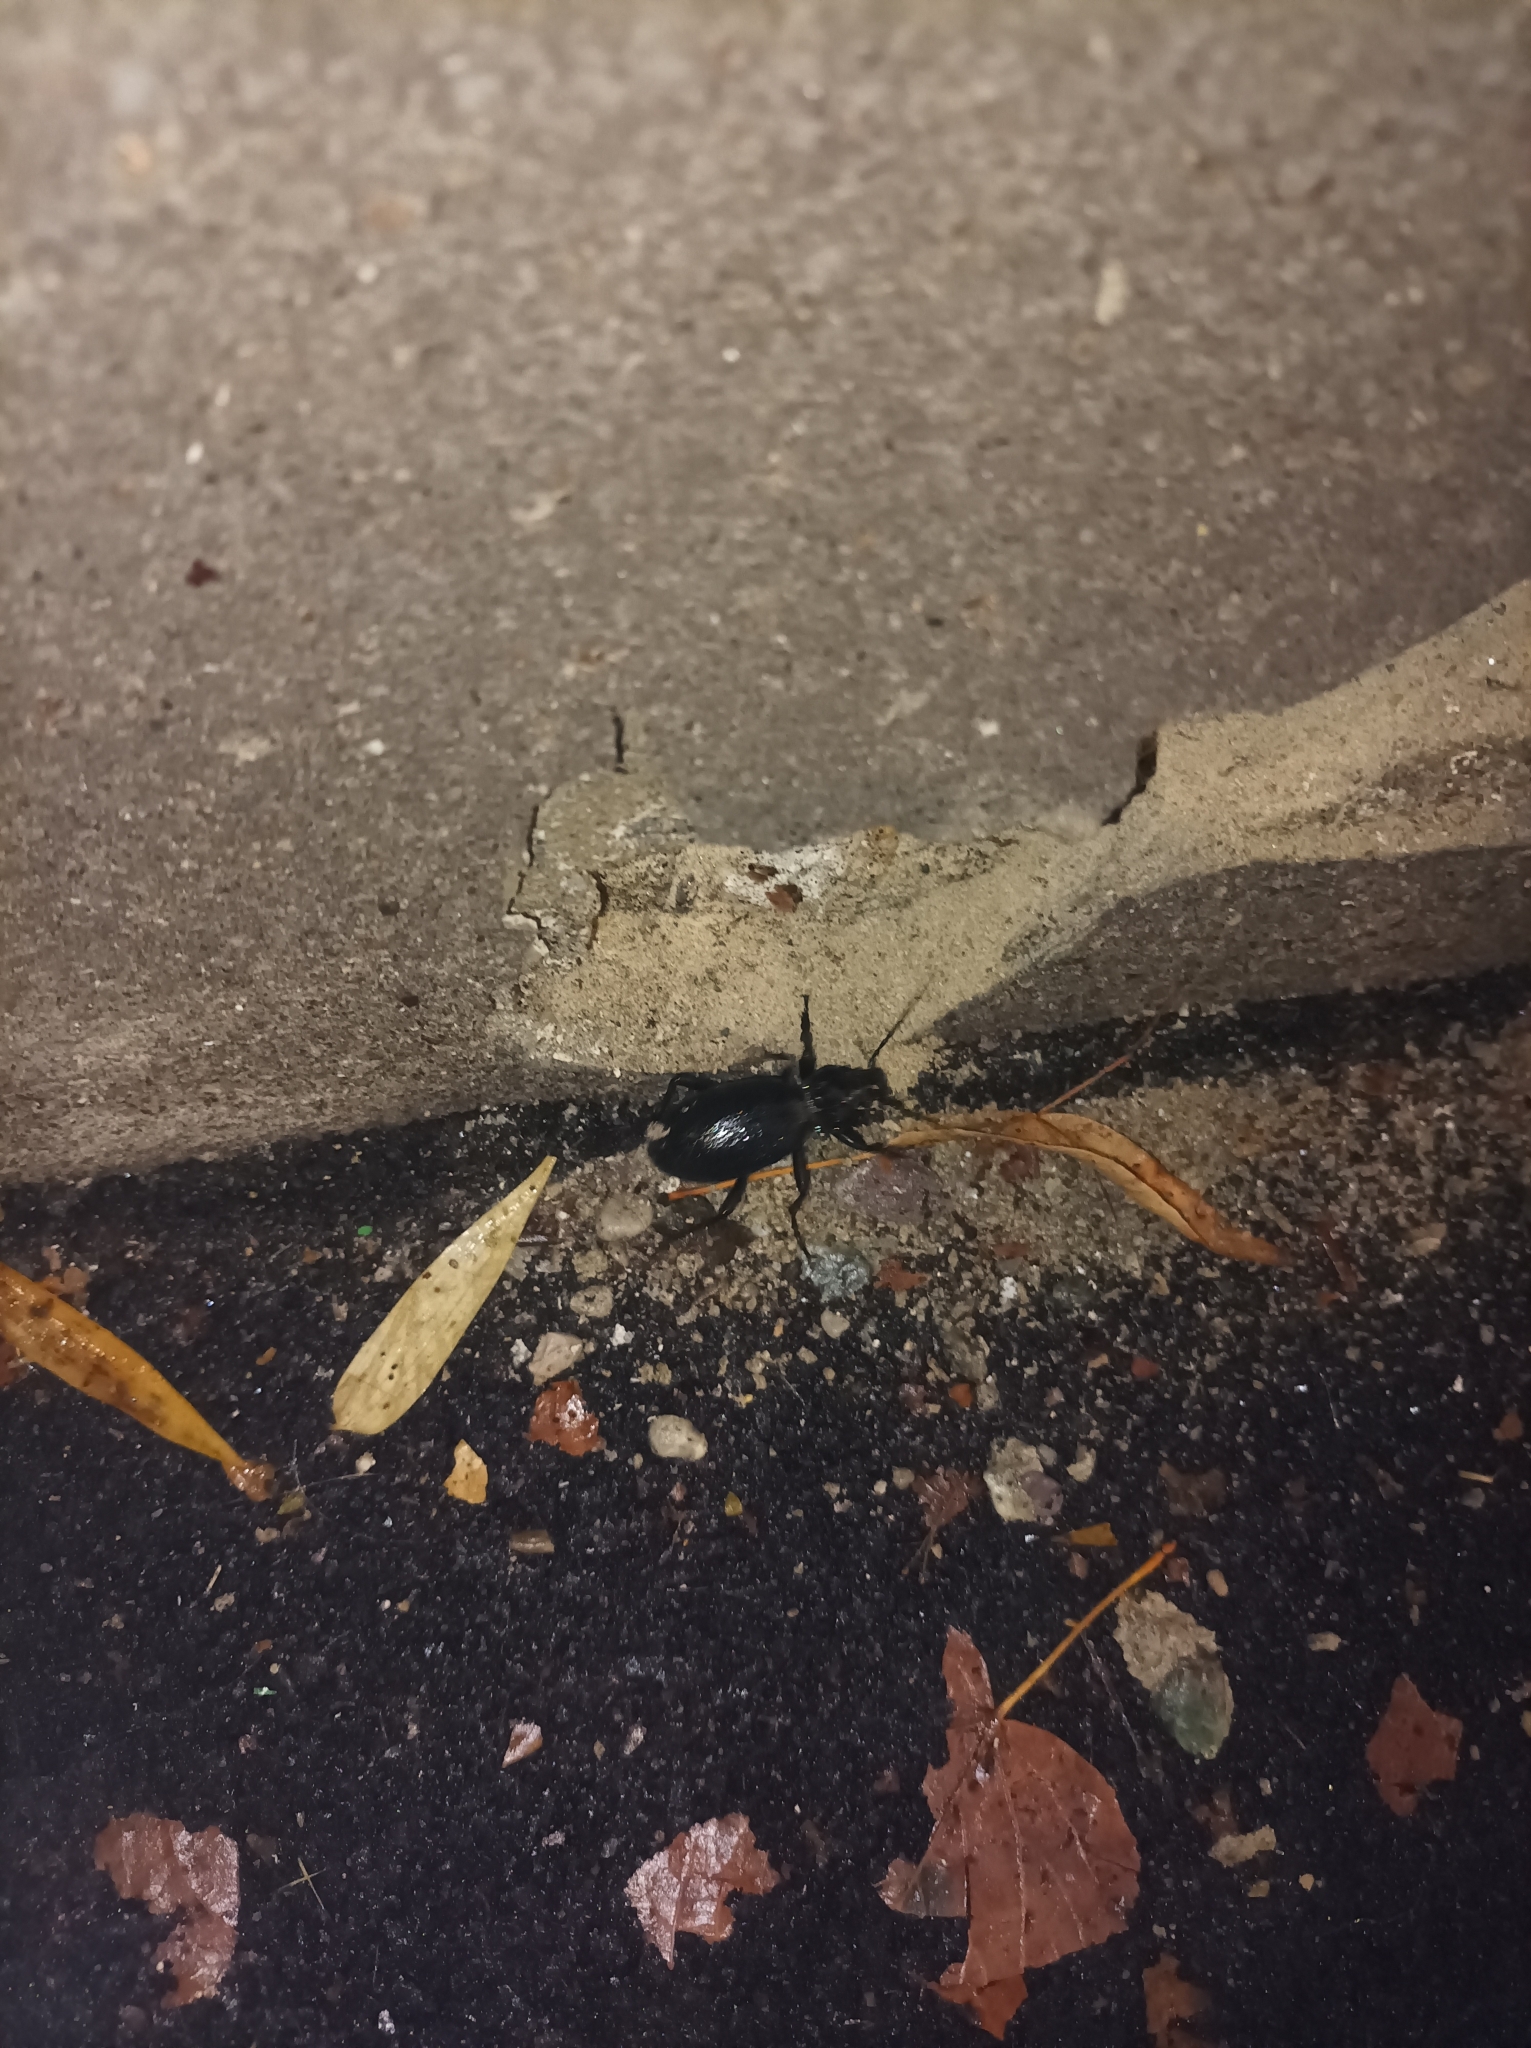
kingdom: Animalia
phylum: Arthropoda
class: Insecta
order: Coleoptera
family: Carabidae
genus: Carabus
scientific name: Carabus coriaceus
